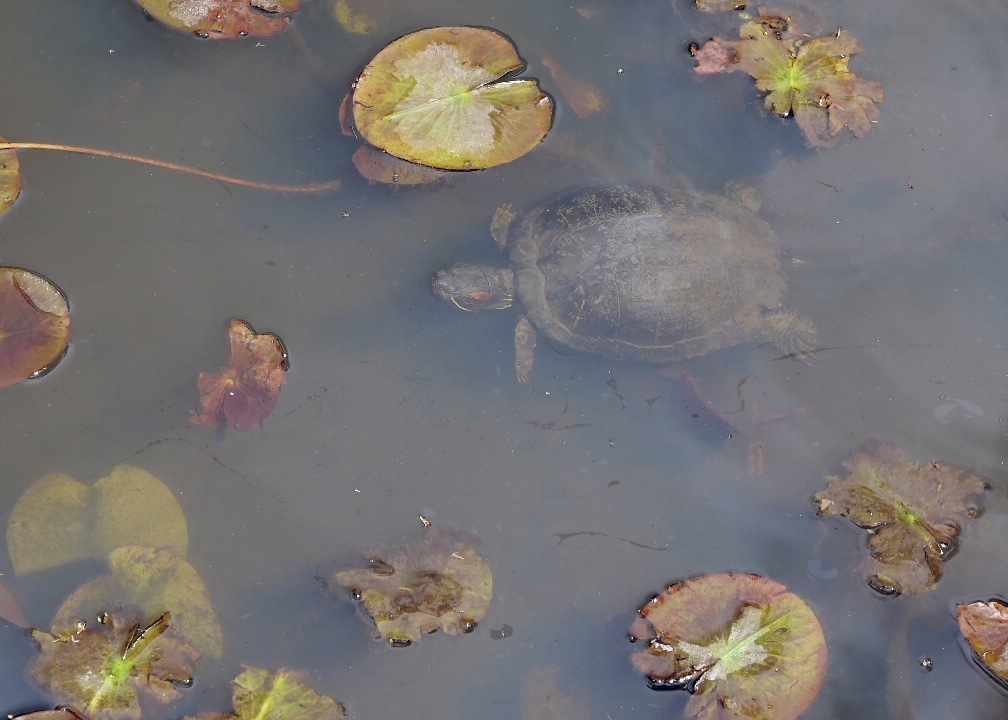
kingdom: Animalia
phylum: Chordata
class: Testudines
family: Emydidae
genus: Trachemys
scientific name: Trachemys scripta
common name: Slider
